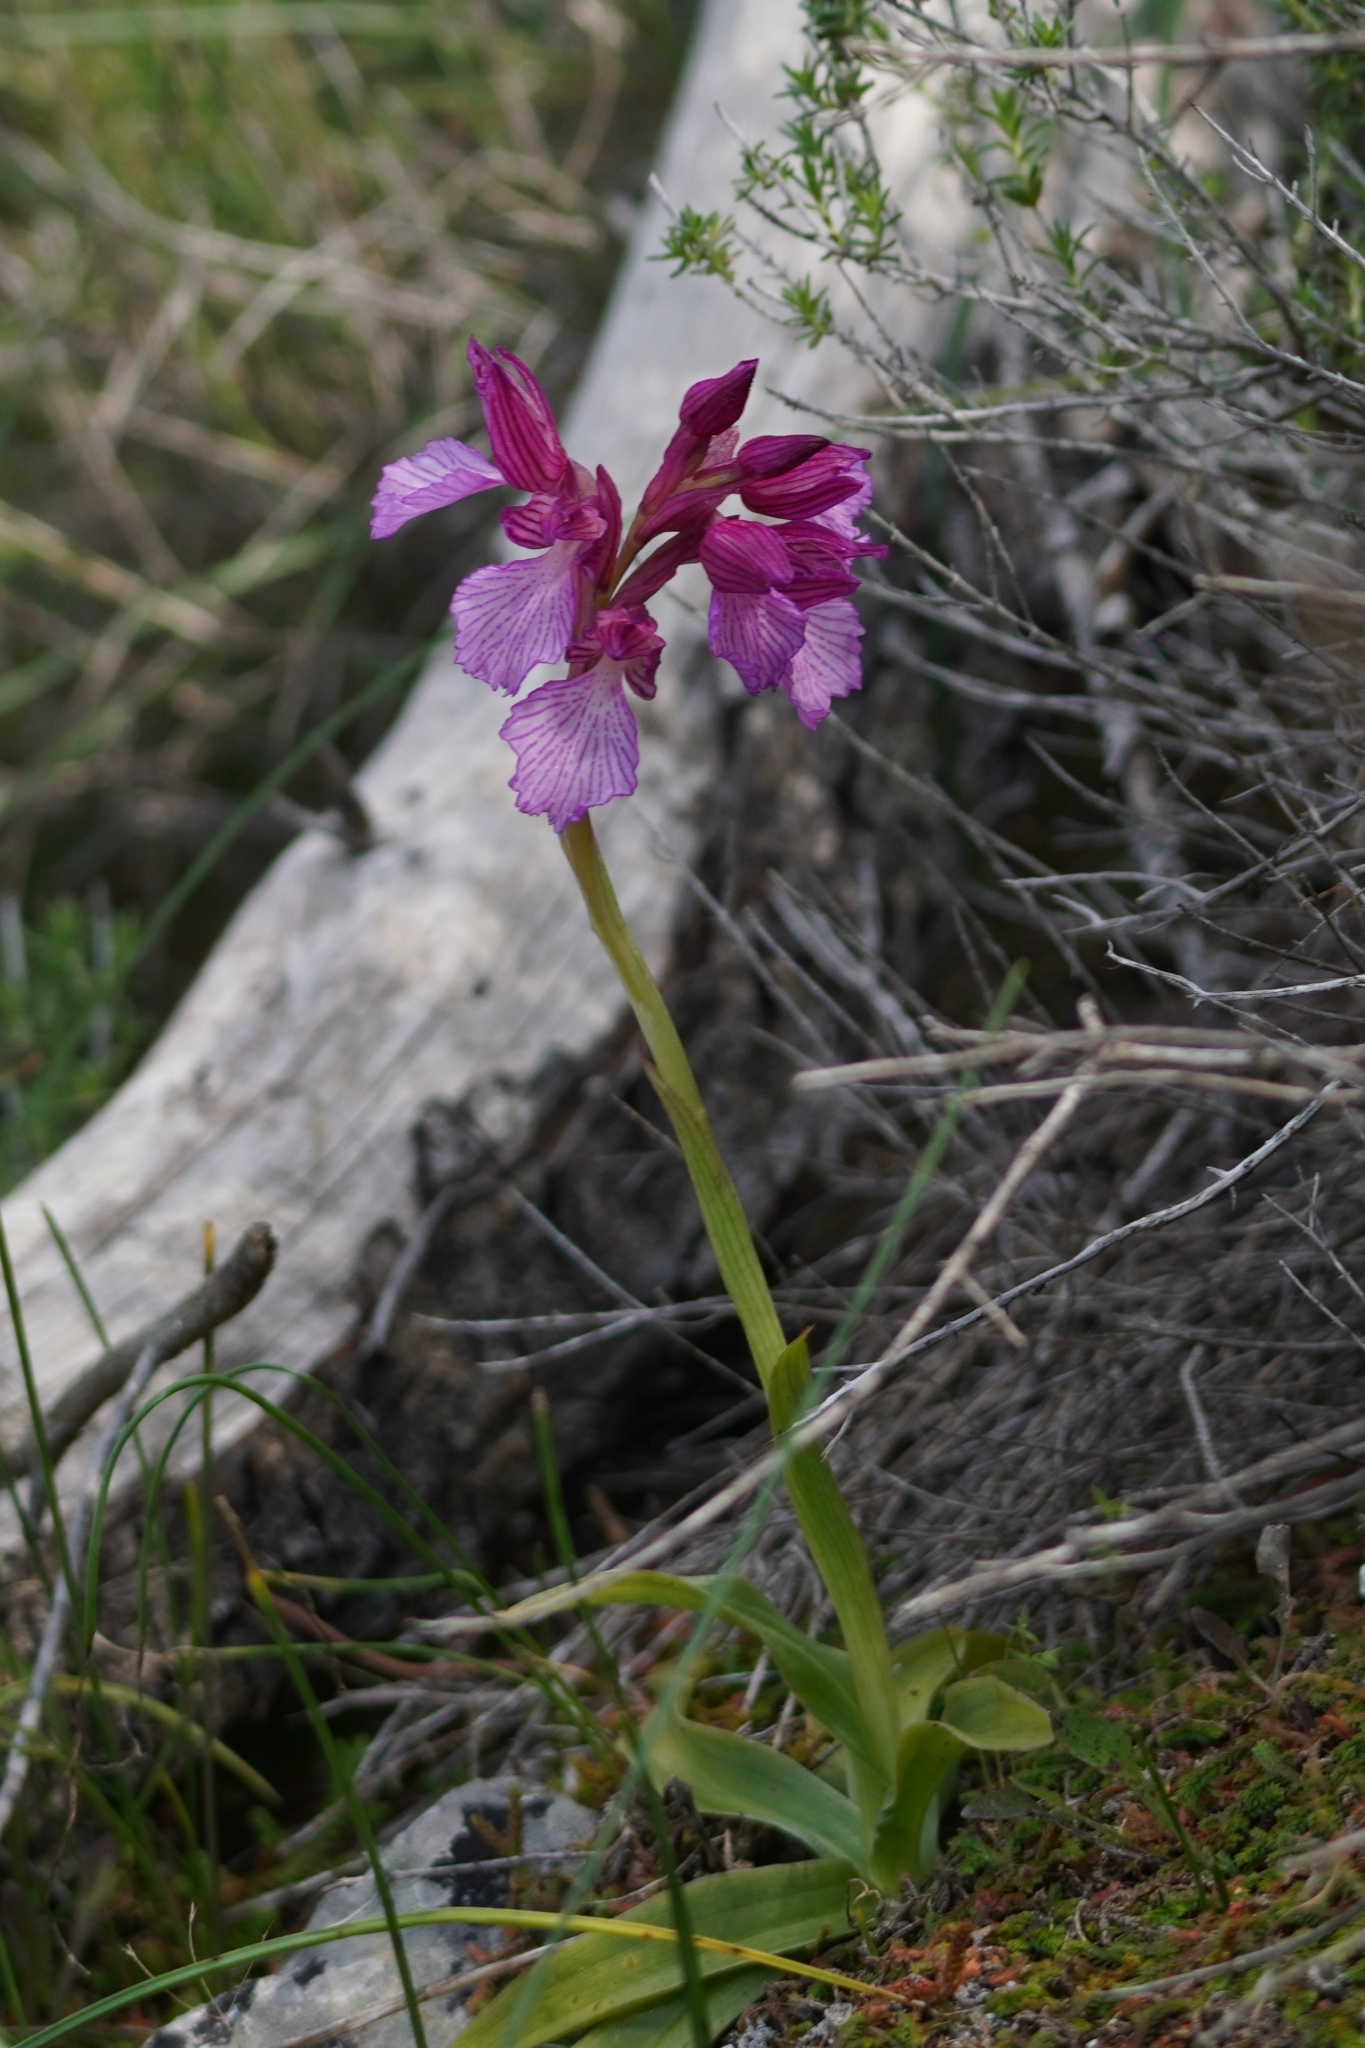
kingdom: Plantae
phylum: Tracheophyta
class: Liliopsida
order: Asparagales
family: Orchidaceae
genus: Anacamptis
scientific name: Anacamptis papilionacea
